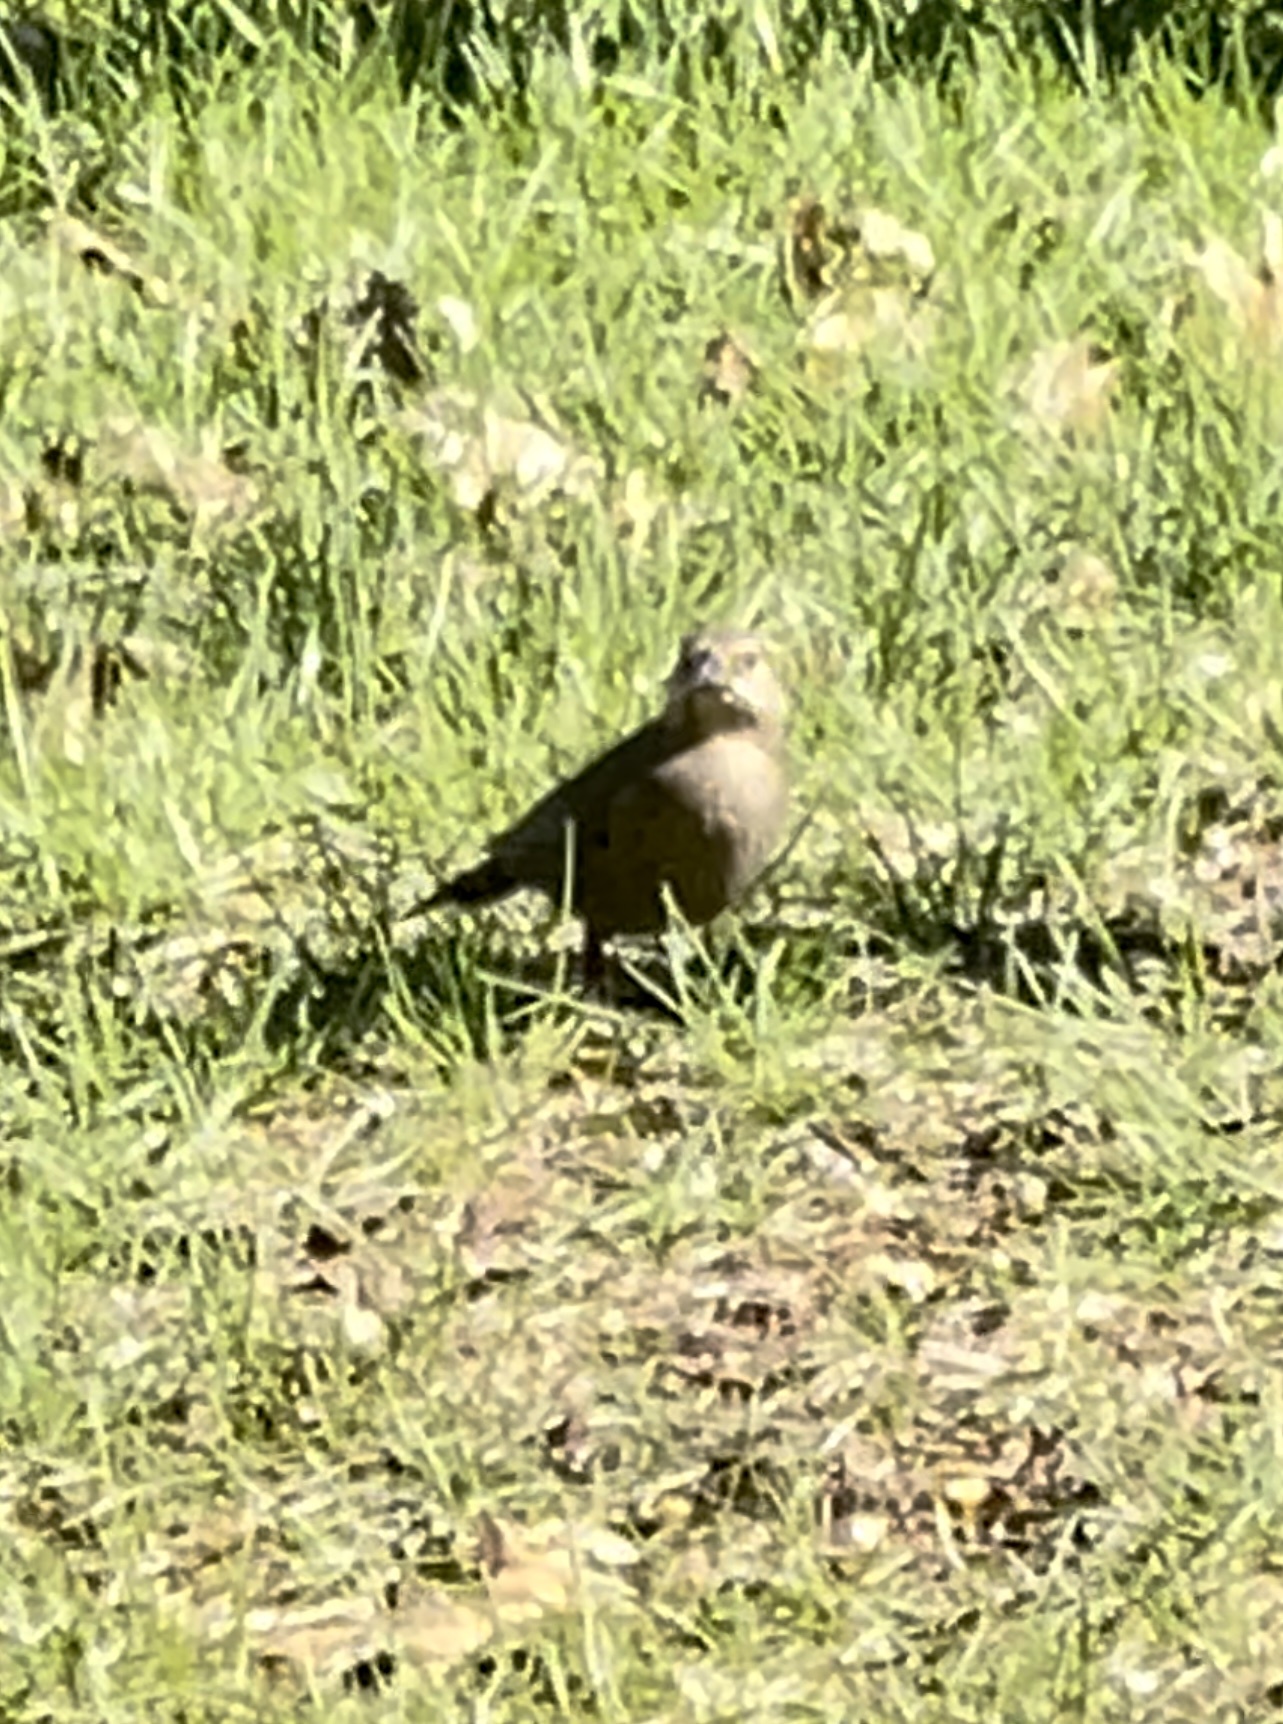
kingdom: Animalia
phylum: Chordata
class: Aves
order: Passeriformes
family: Icteridae
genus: Molothrus
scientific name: Molothrus ater
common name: Brown-headed cowbird
